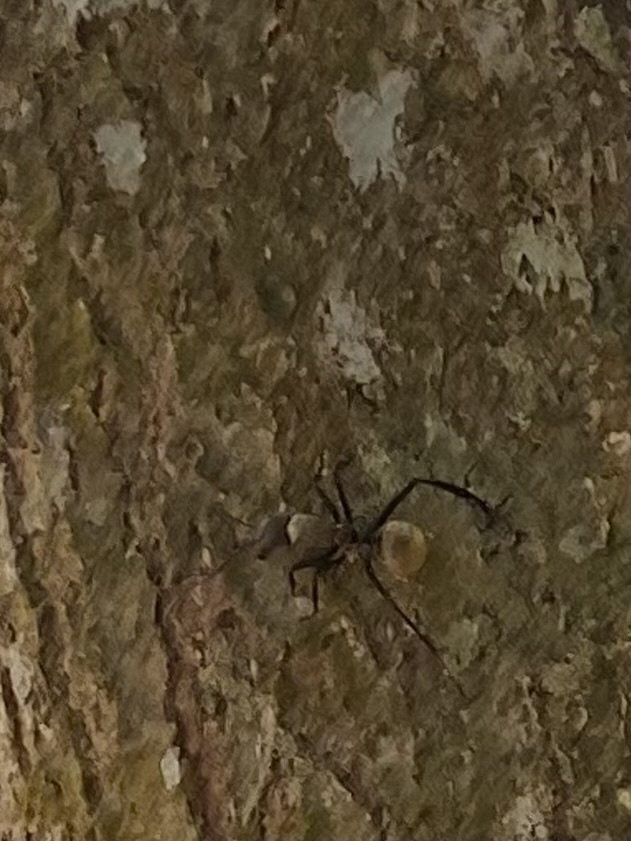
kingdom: Animalia
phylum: Arthropoda
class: Insecta
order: Hymenoptera
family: Formicidae
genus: Camponotus
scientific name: Camponotus sericeiventris
